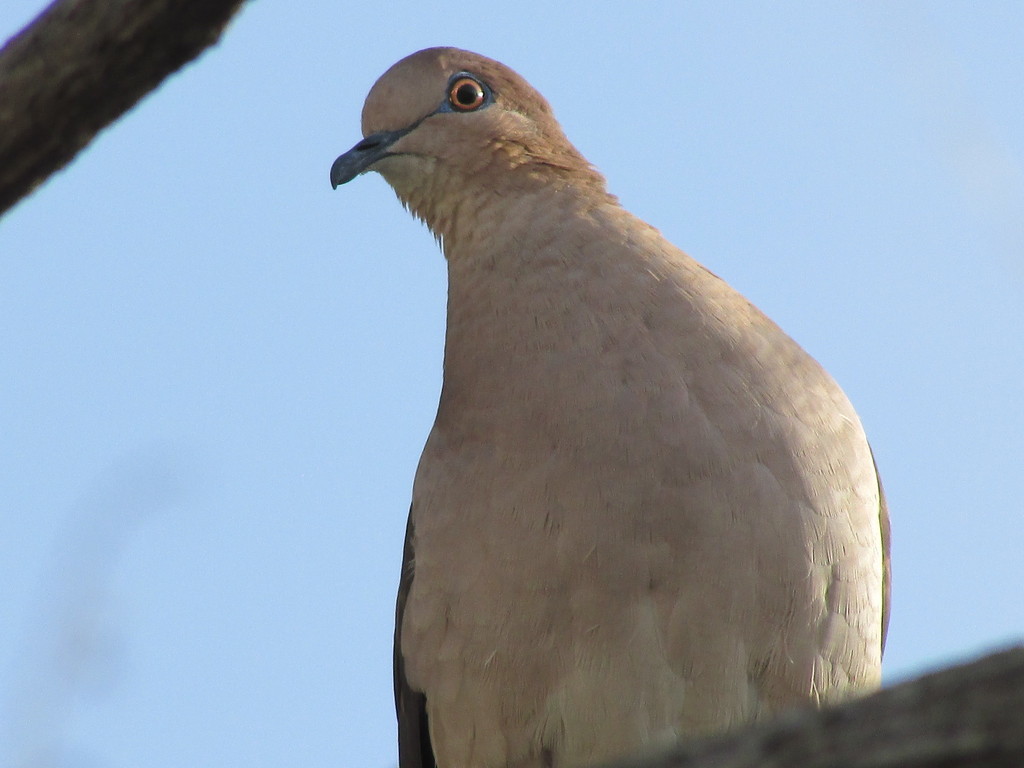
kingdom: Animalia
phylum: Chordata
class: Aves
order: Columbiformes
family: Columbidae
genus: Leptotila
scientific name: Leptotila verreauxi
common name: White-tipped dove
